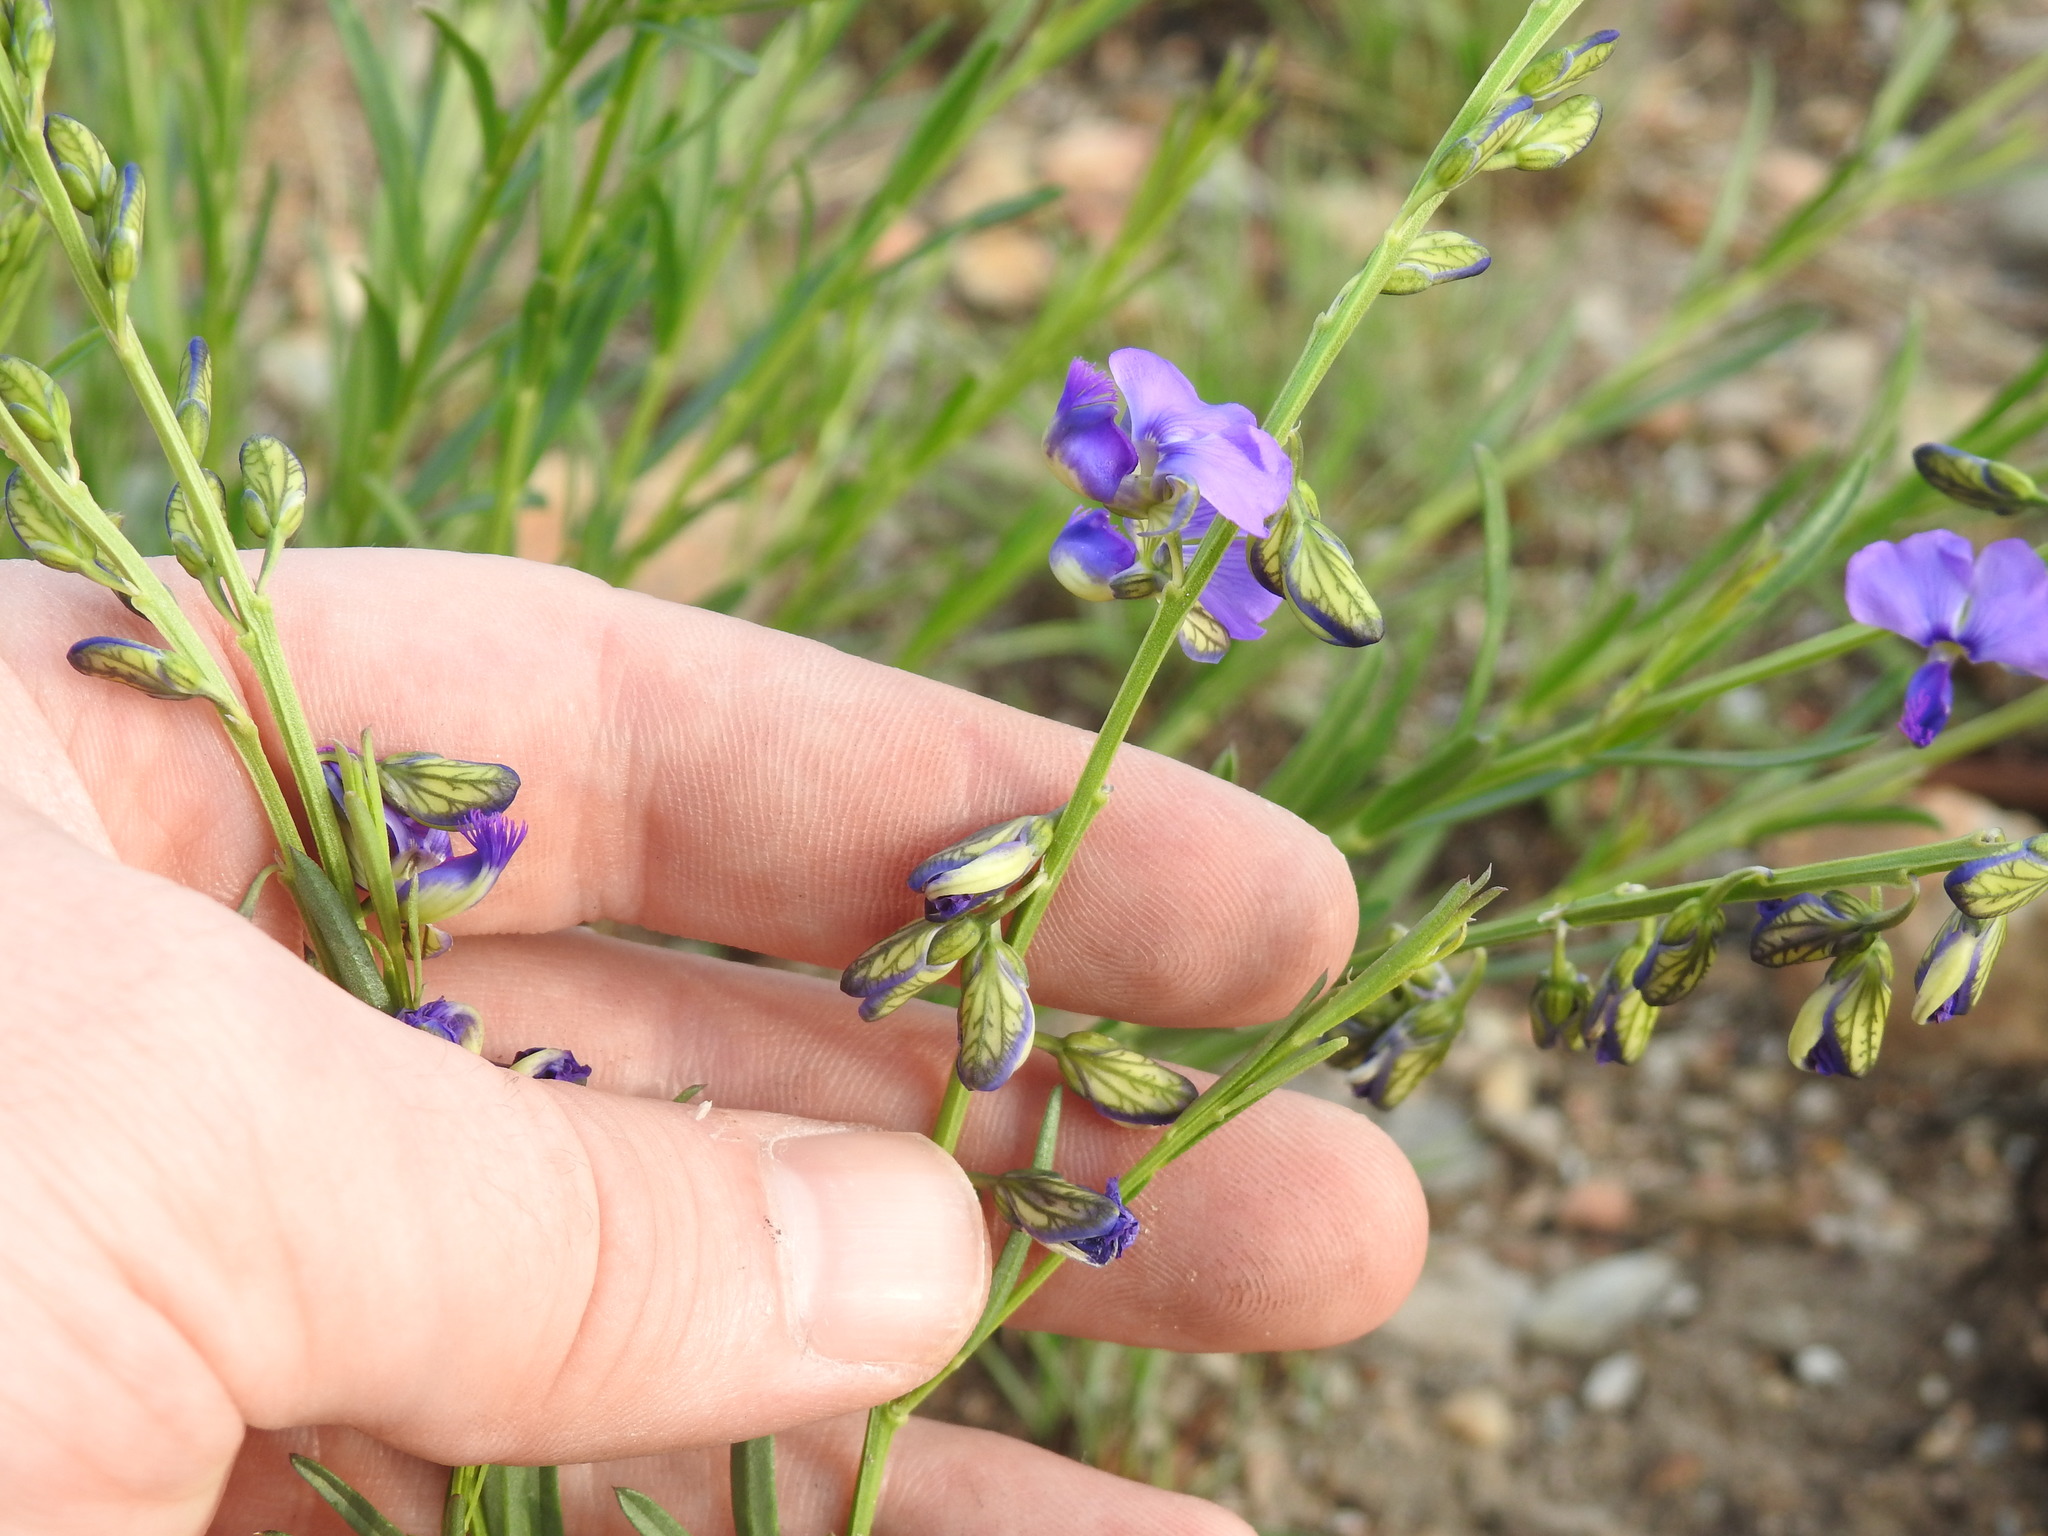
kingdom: Plantae
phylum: Tracheophyta
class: Magnoliopsida
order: Fabales
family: Polygalaceae
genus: Polygala
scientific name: Polygala uncinata
